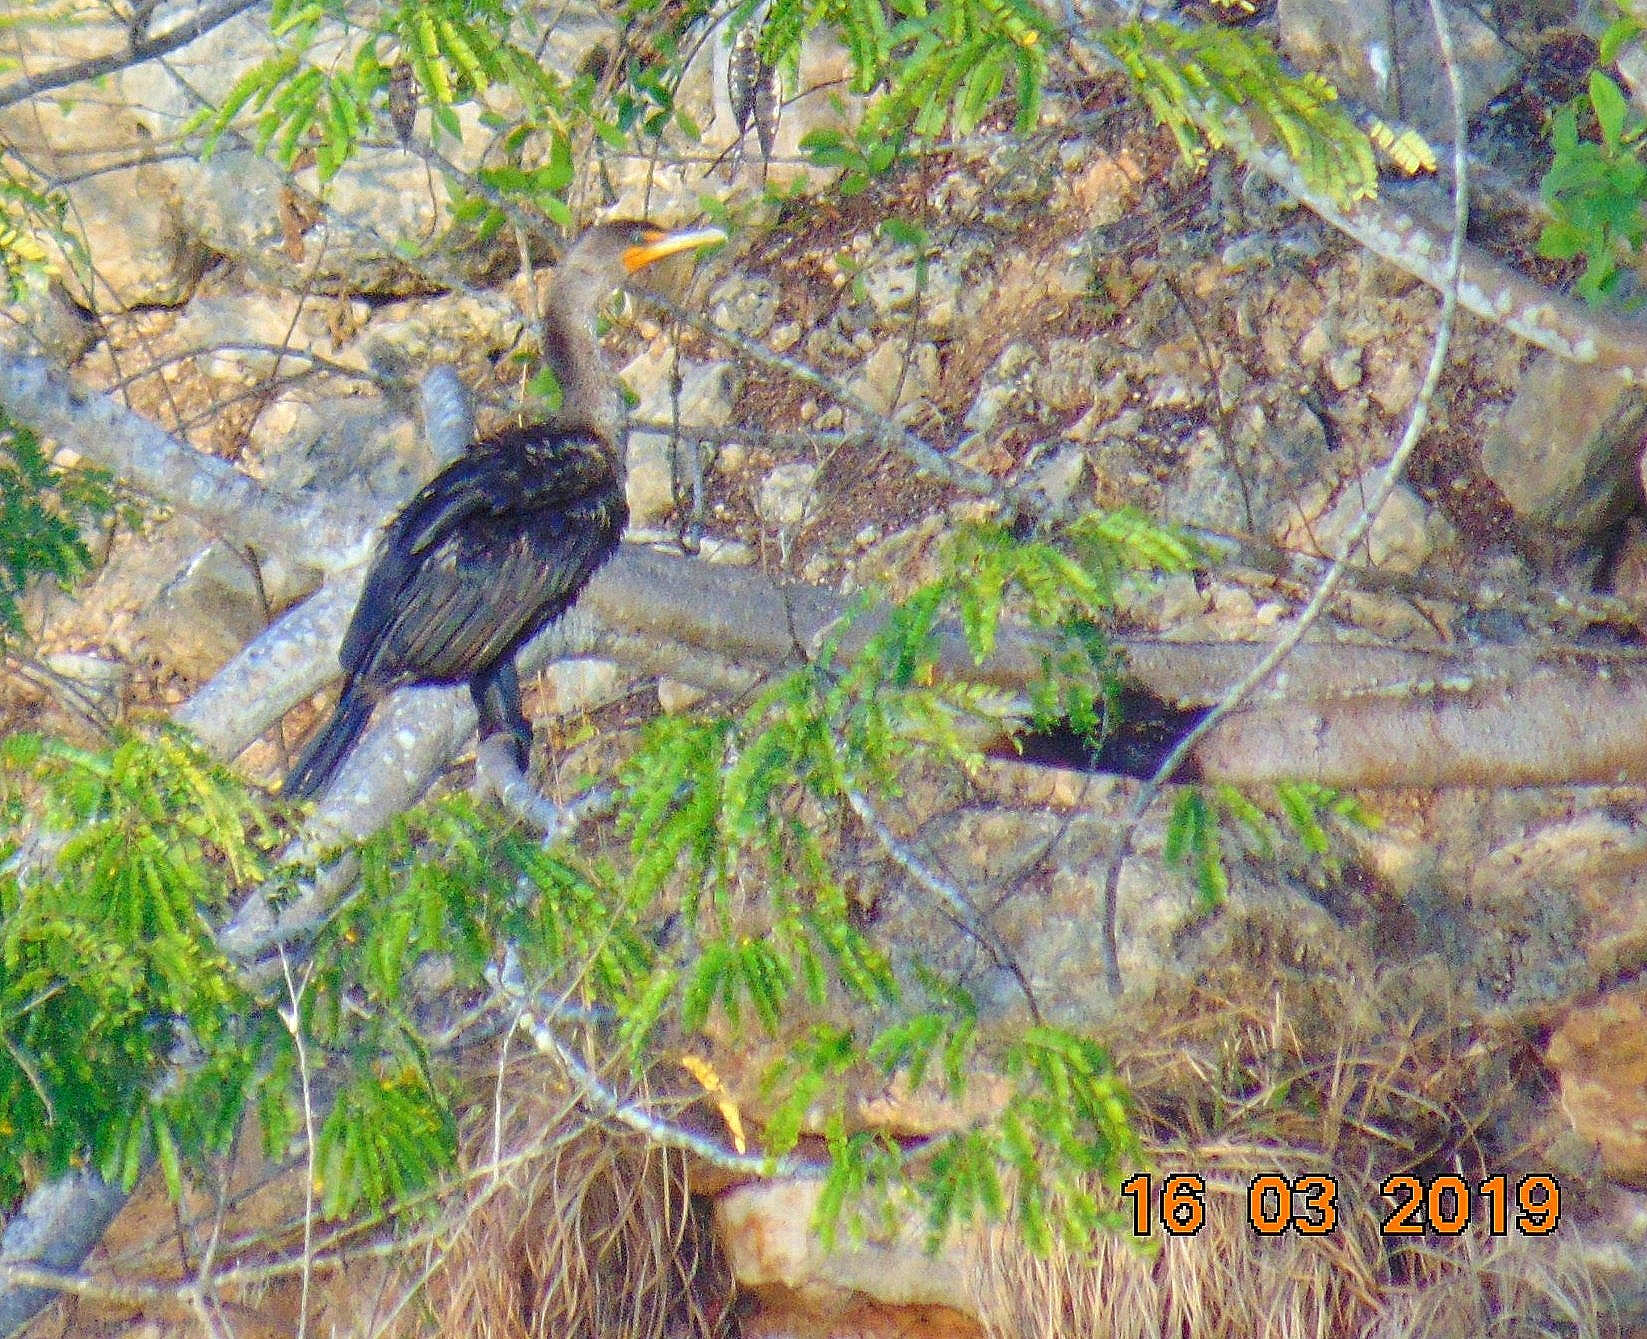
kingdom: Animalia
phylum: Chordata
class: Aves
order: Suliformes
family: Phalacrocoracidae
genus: Phalacrocorax
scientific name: Phalacrocorax auritus
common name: Double-crested cormorant
